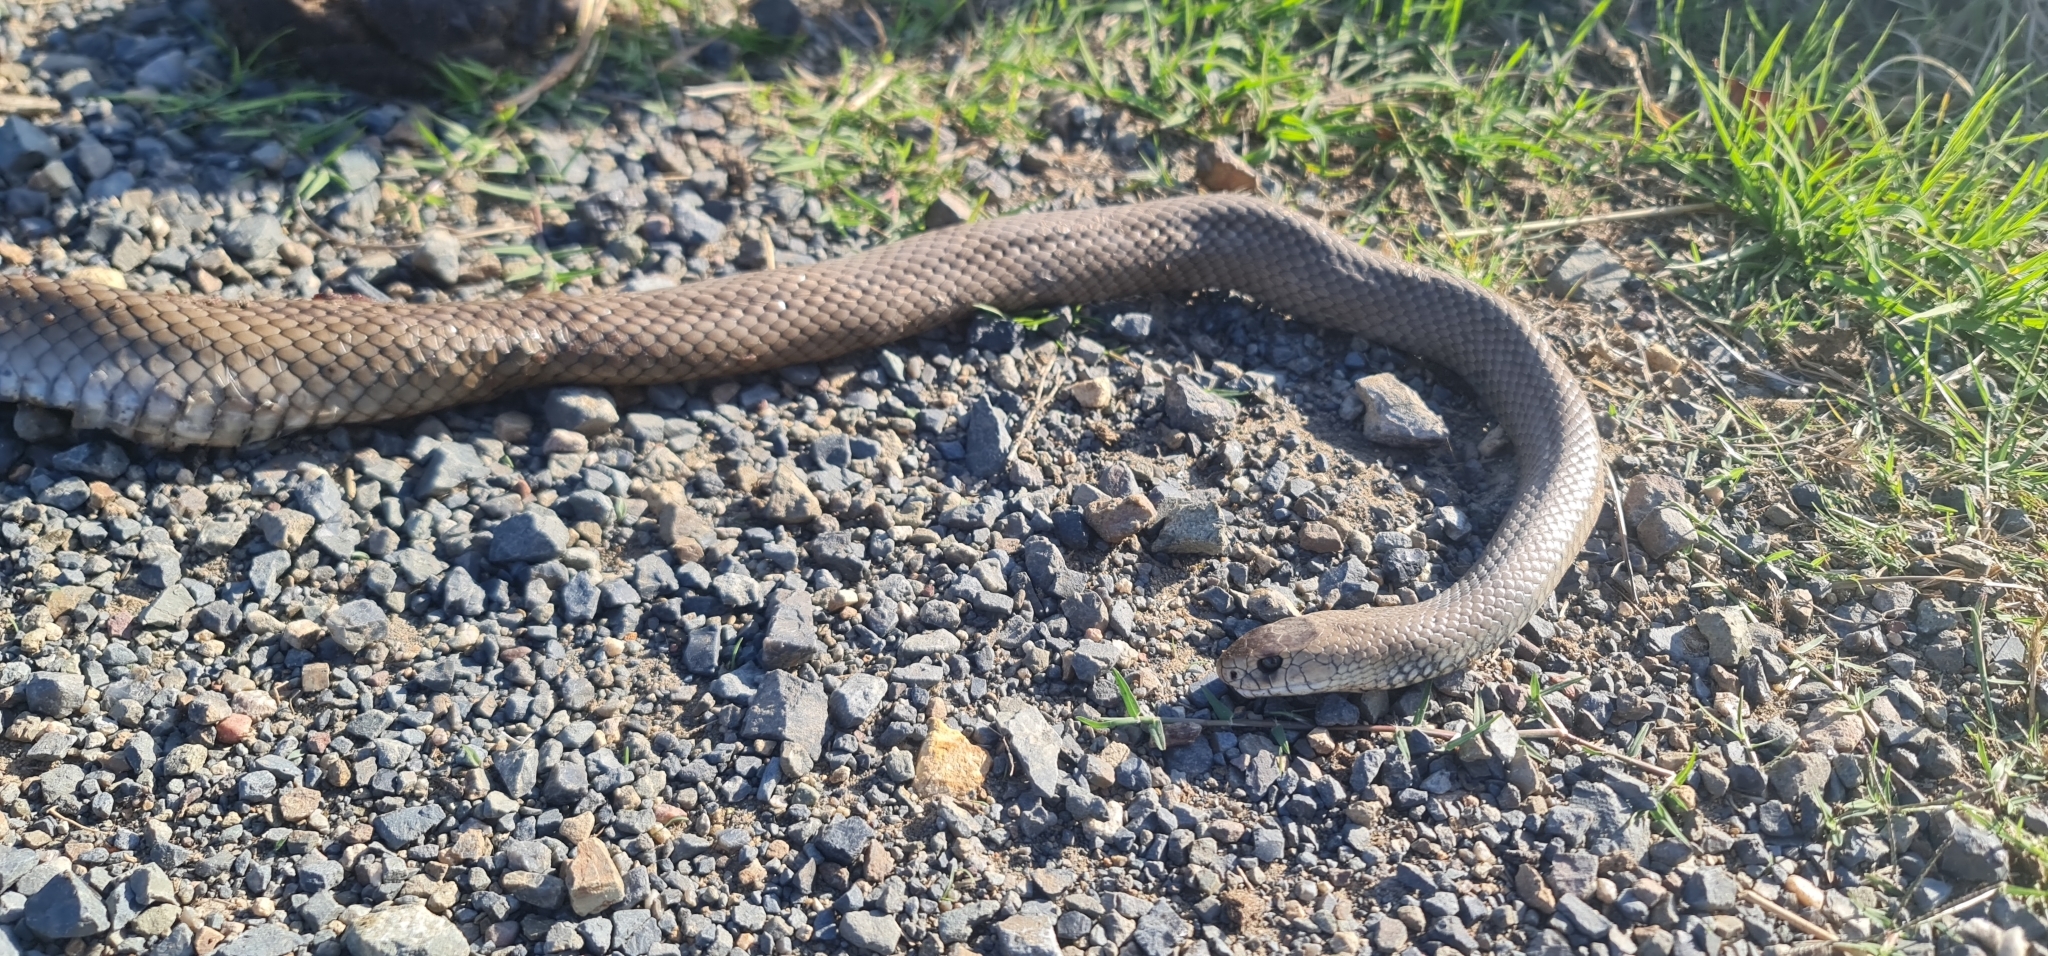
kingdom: Animalia
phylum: Chordata
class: Squamata
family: Elapidae
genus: Pseudonaja
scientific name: Pseudonaja textilis
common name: Eastern brown snake
